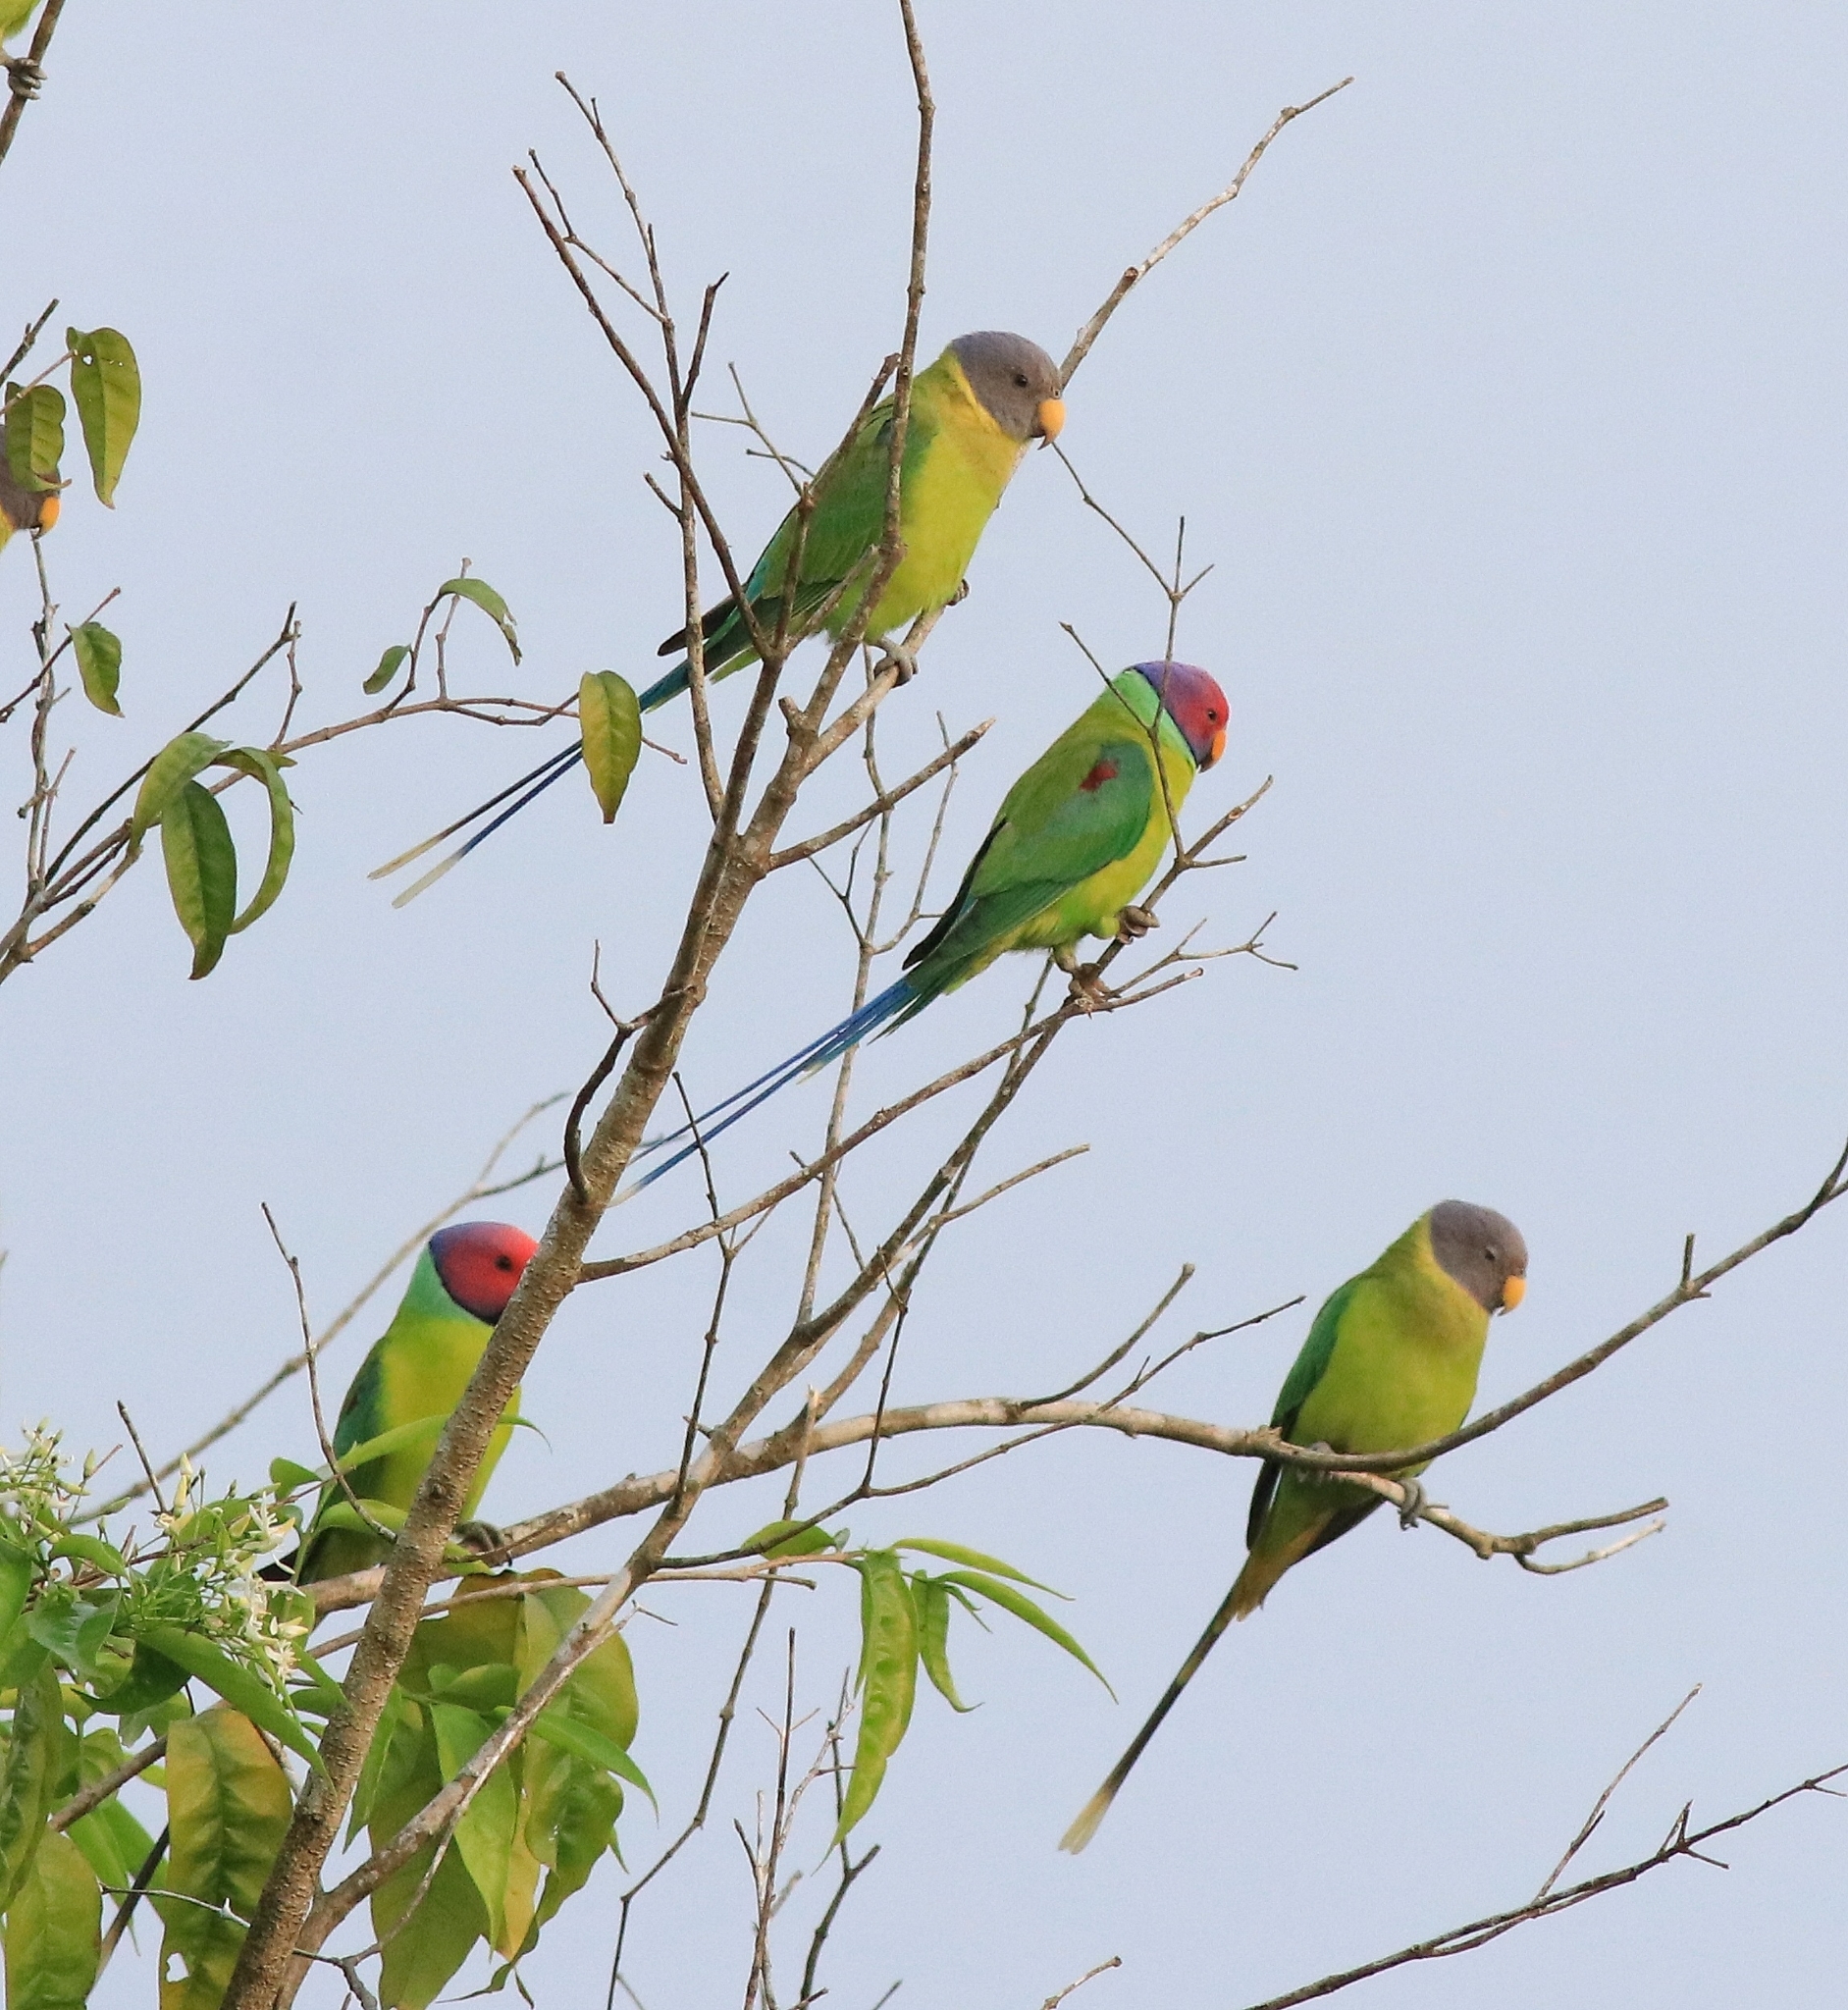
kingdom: Animalia
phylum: Chordata
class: Aves
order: Psittaciformes
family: Psittacidae
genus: Psittacula
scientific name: Psittacula cyanocephala
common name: Plum-headed parakeet
